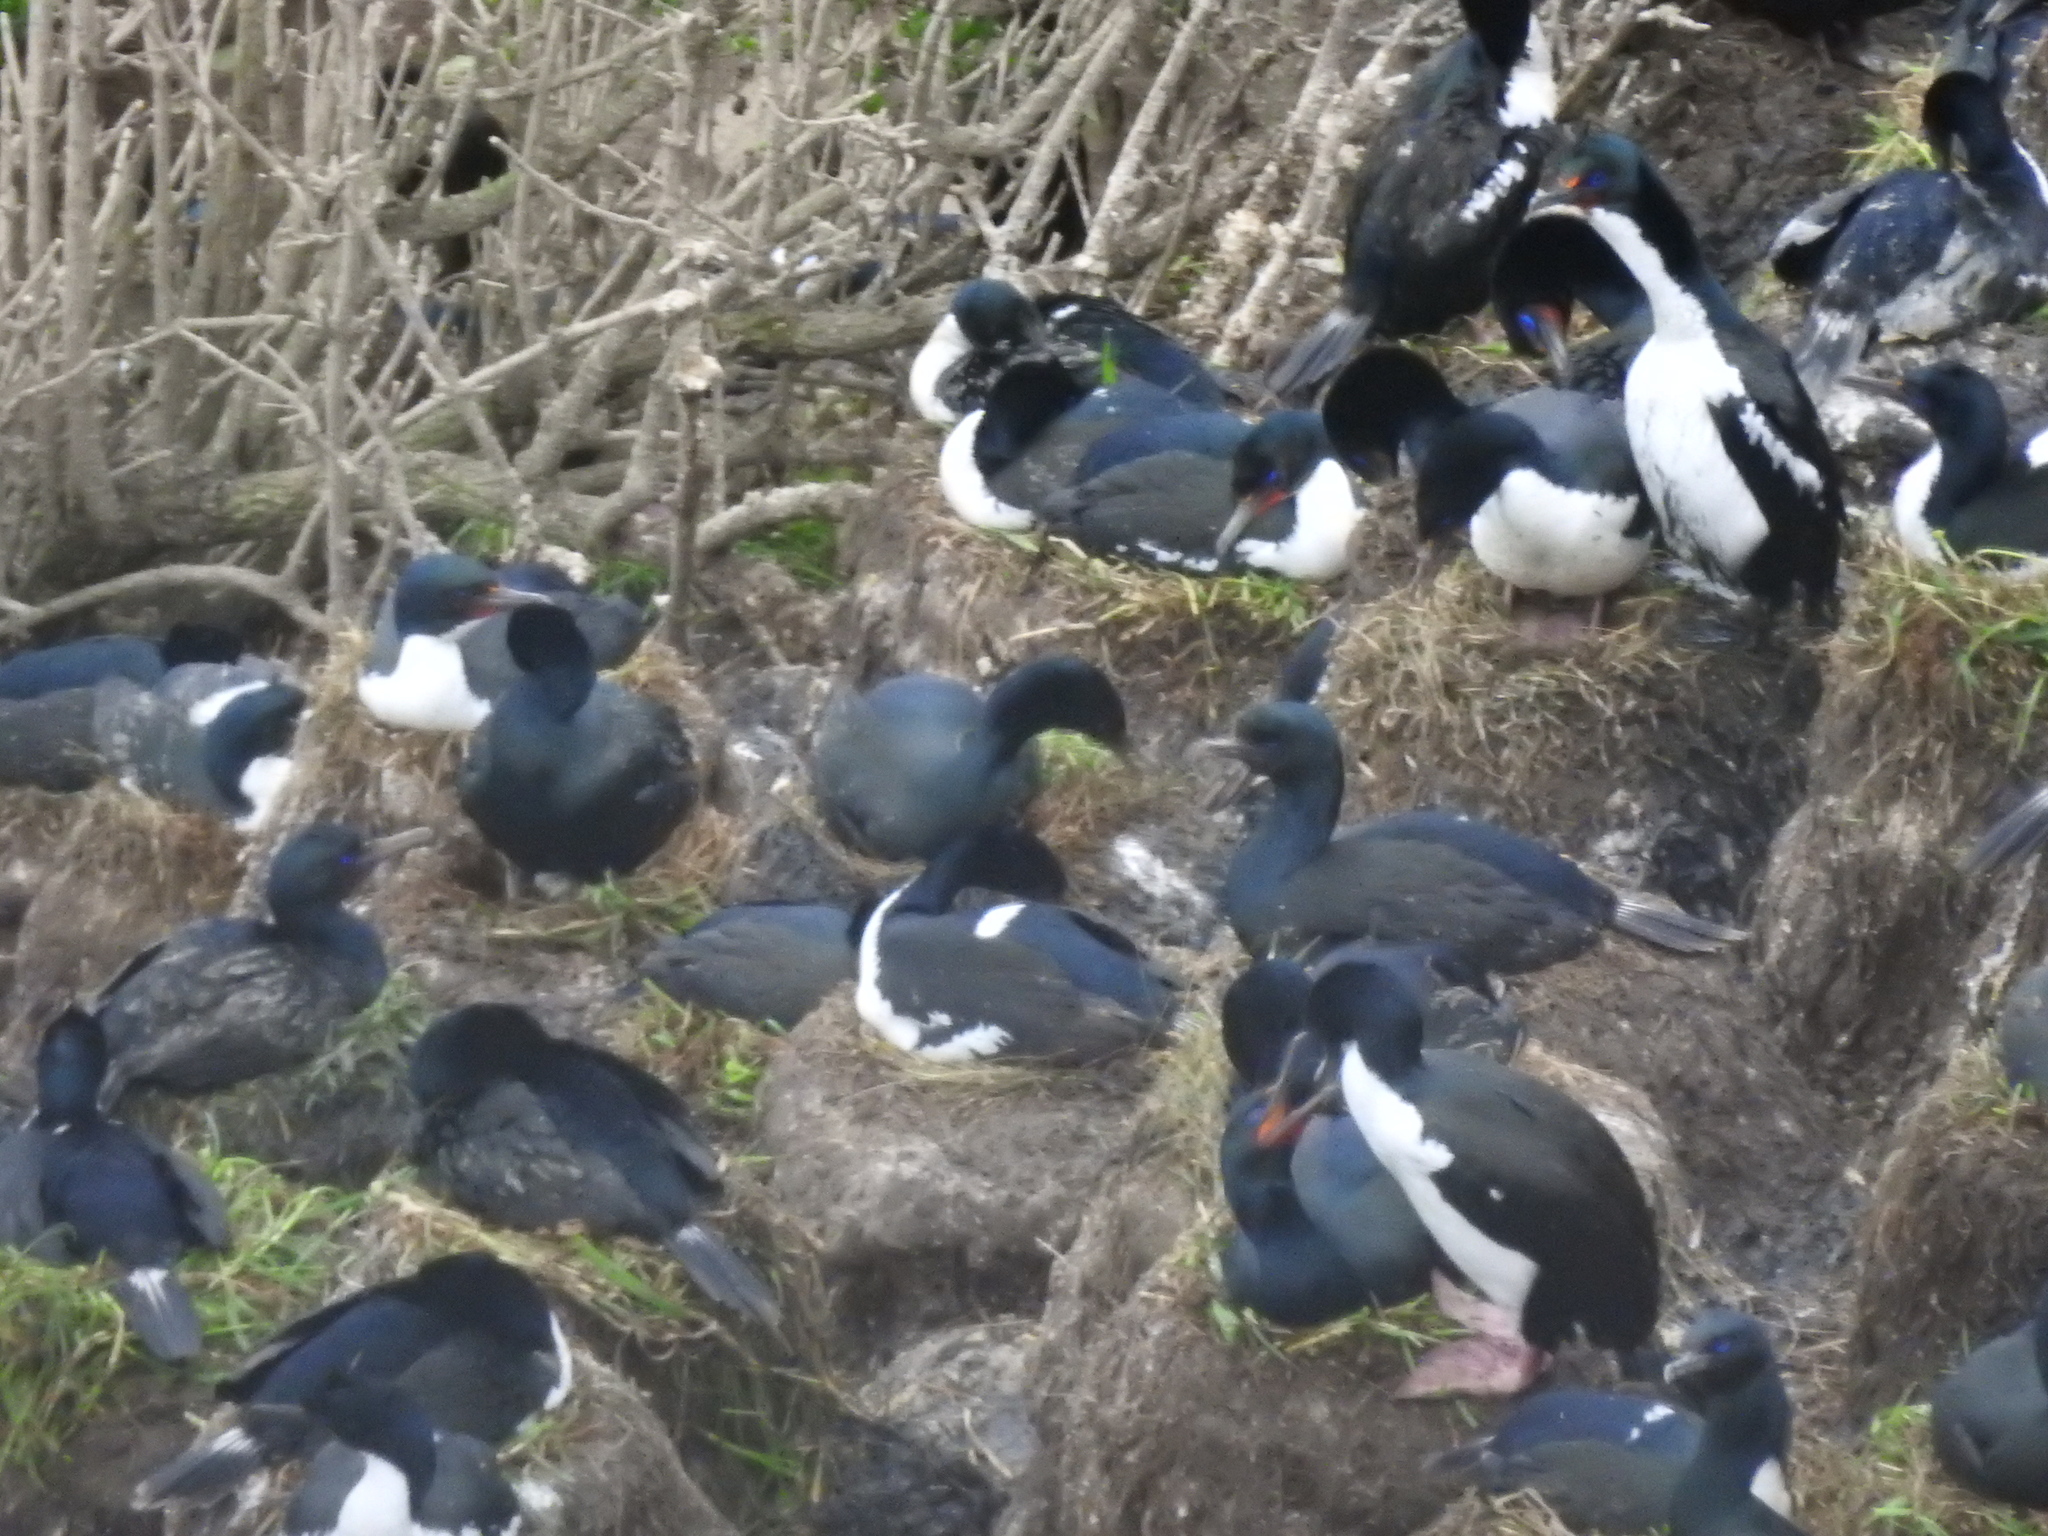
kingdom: Animalia
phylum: Chordata
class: Aves
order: Suliformes
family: Phalacrocoracidae
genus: Leucocarbo
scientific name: Leucocarbo chalconotus
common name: Stewart shag
